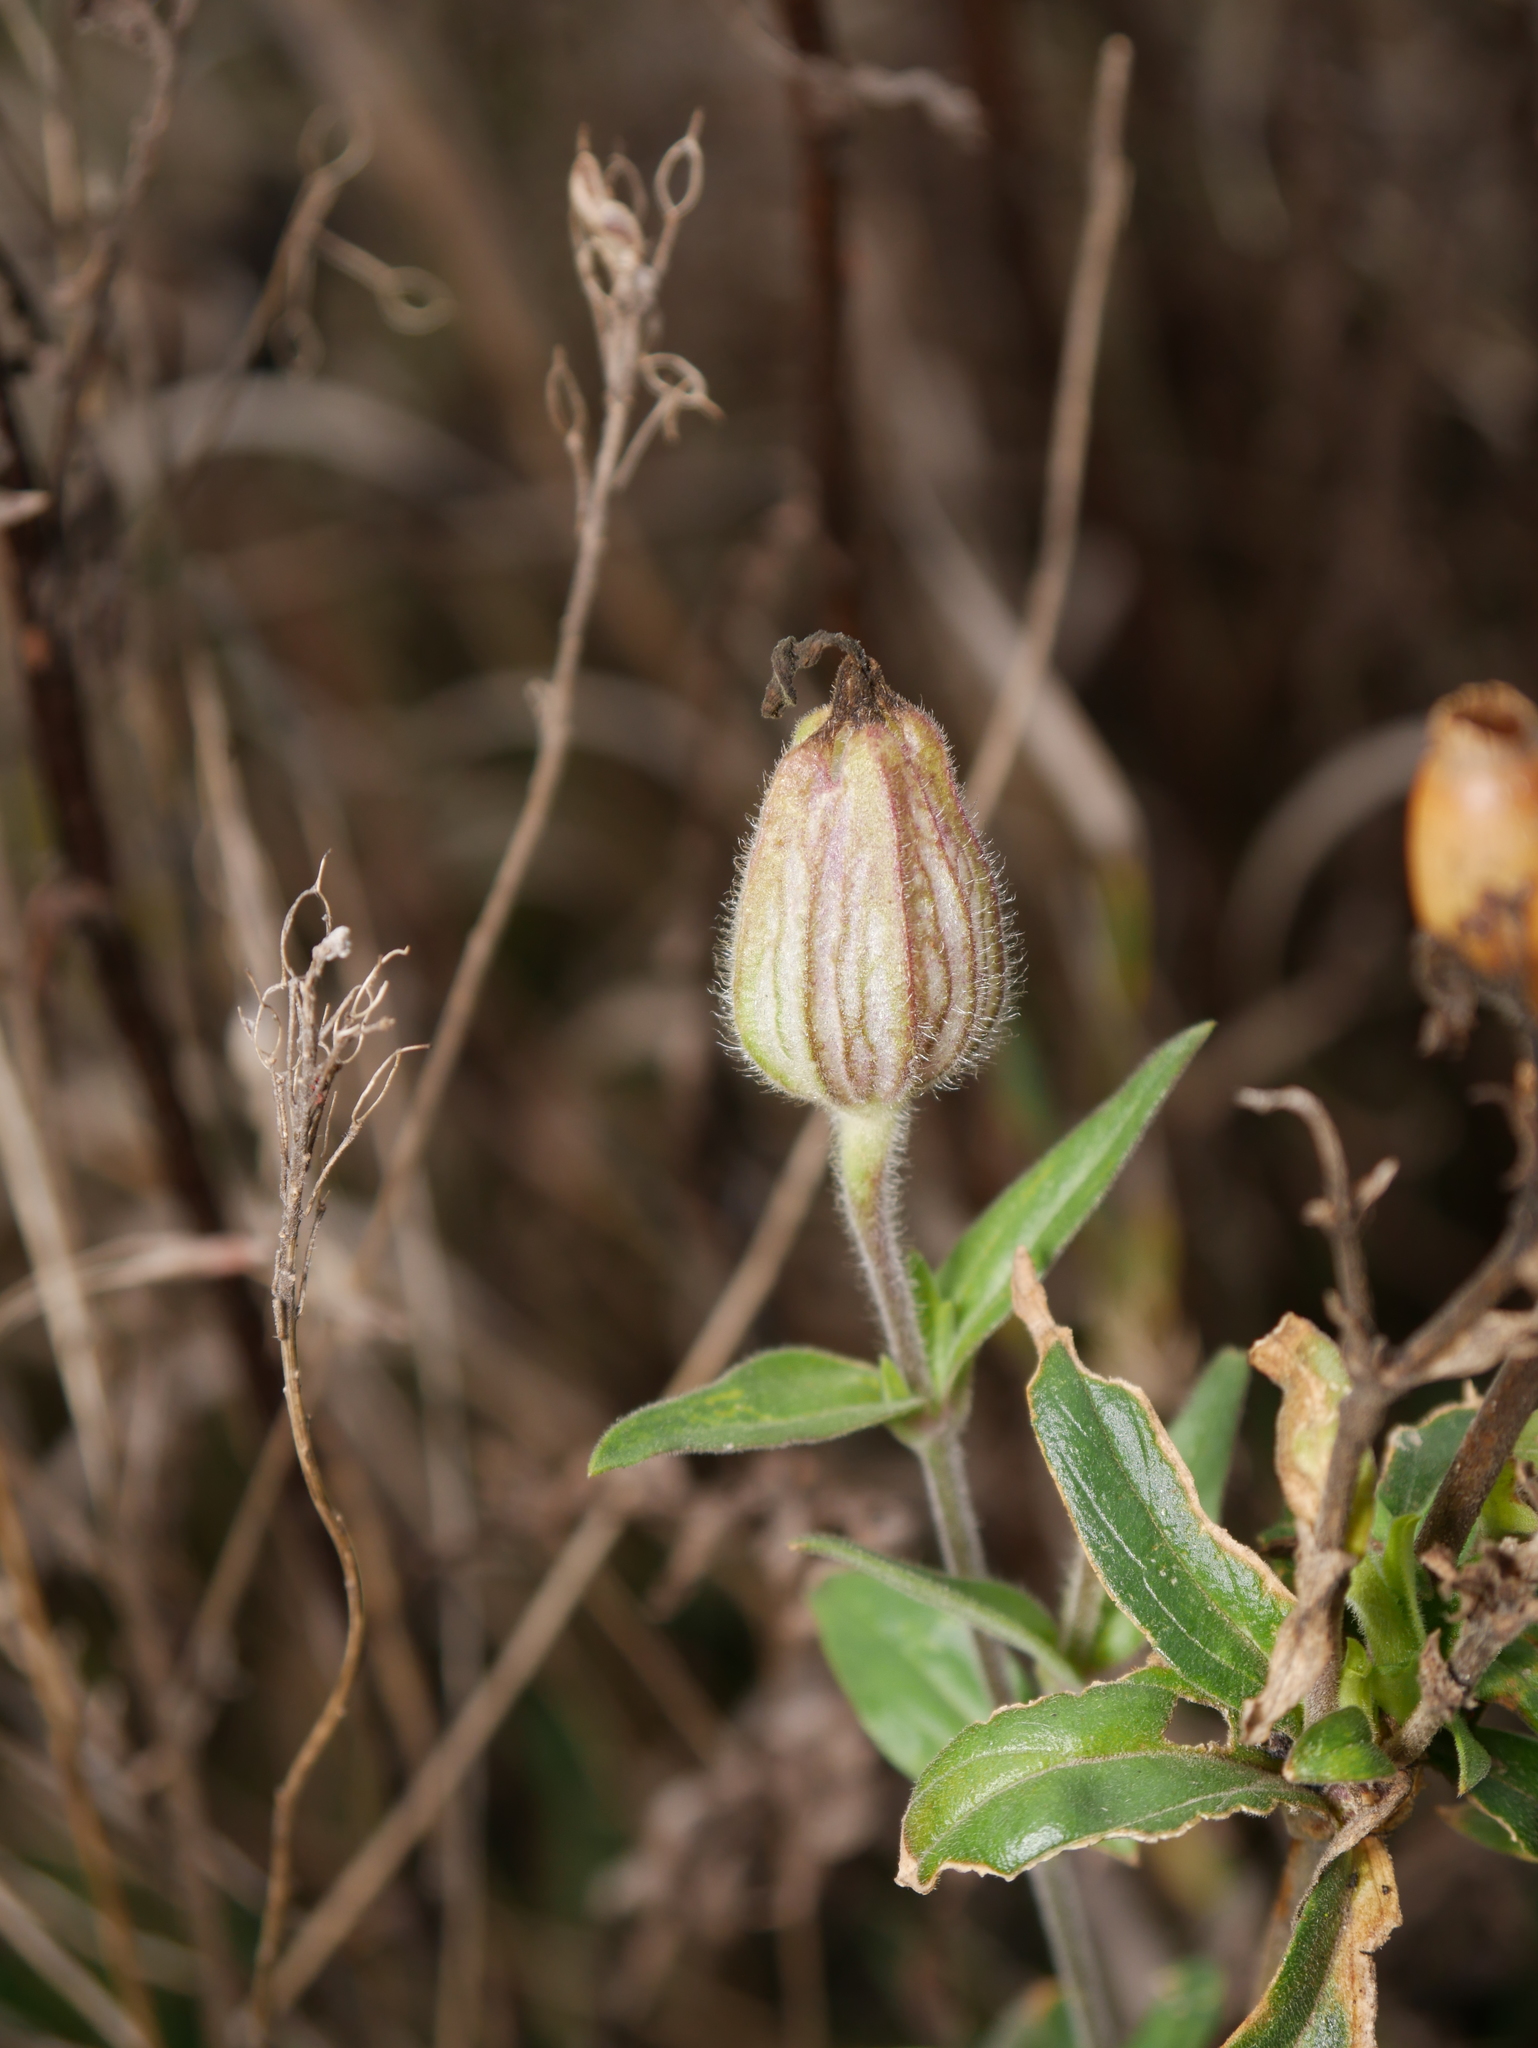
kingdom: Plantae
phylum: Tracheophyta
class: Magnoliopsida
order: Caryophyllales
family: Caryophyllaceae
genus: Silene
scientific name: Silene latifolia
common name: White campion
